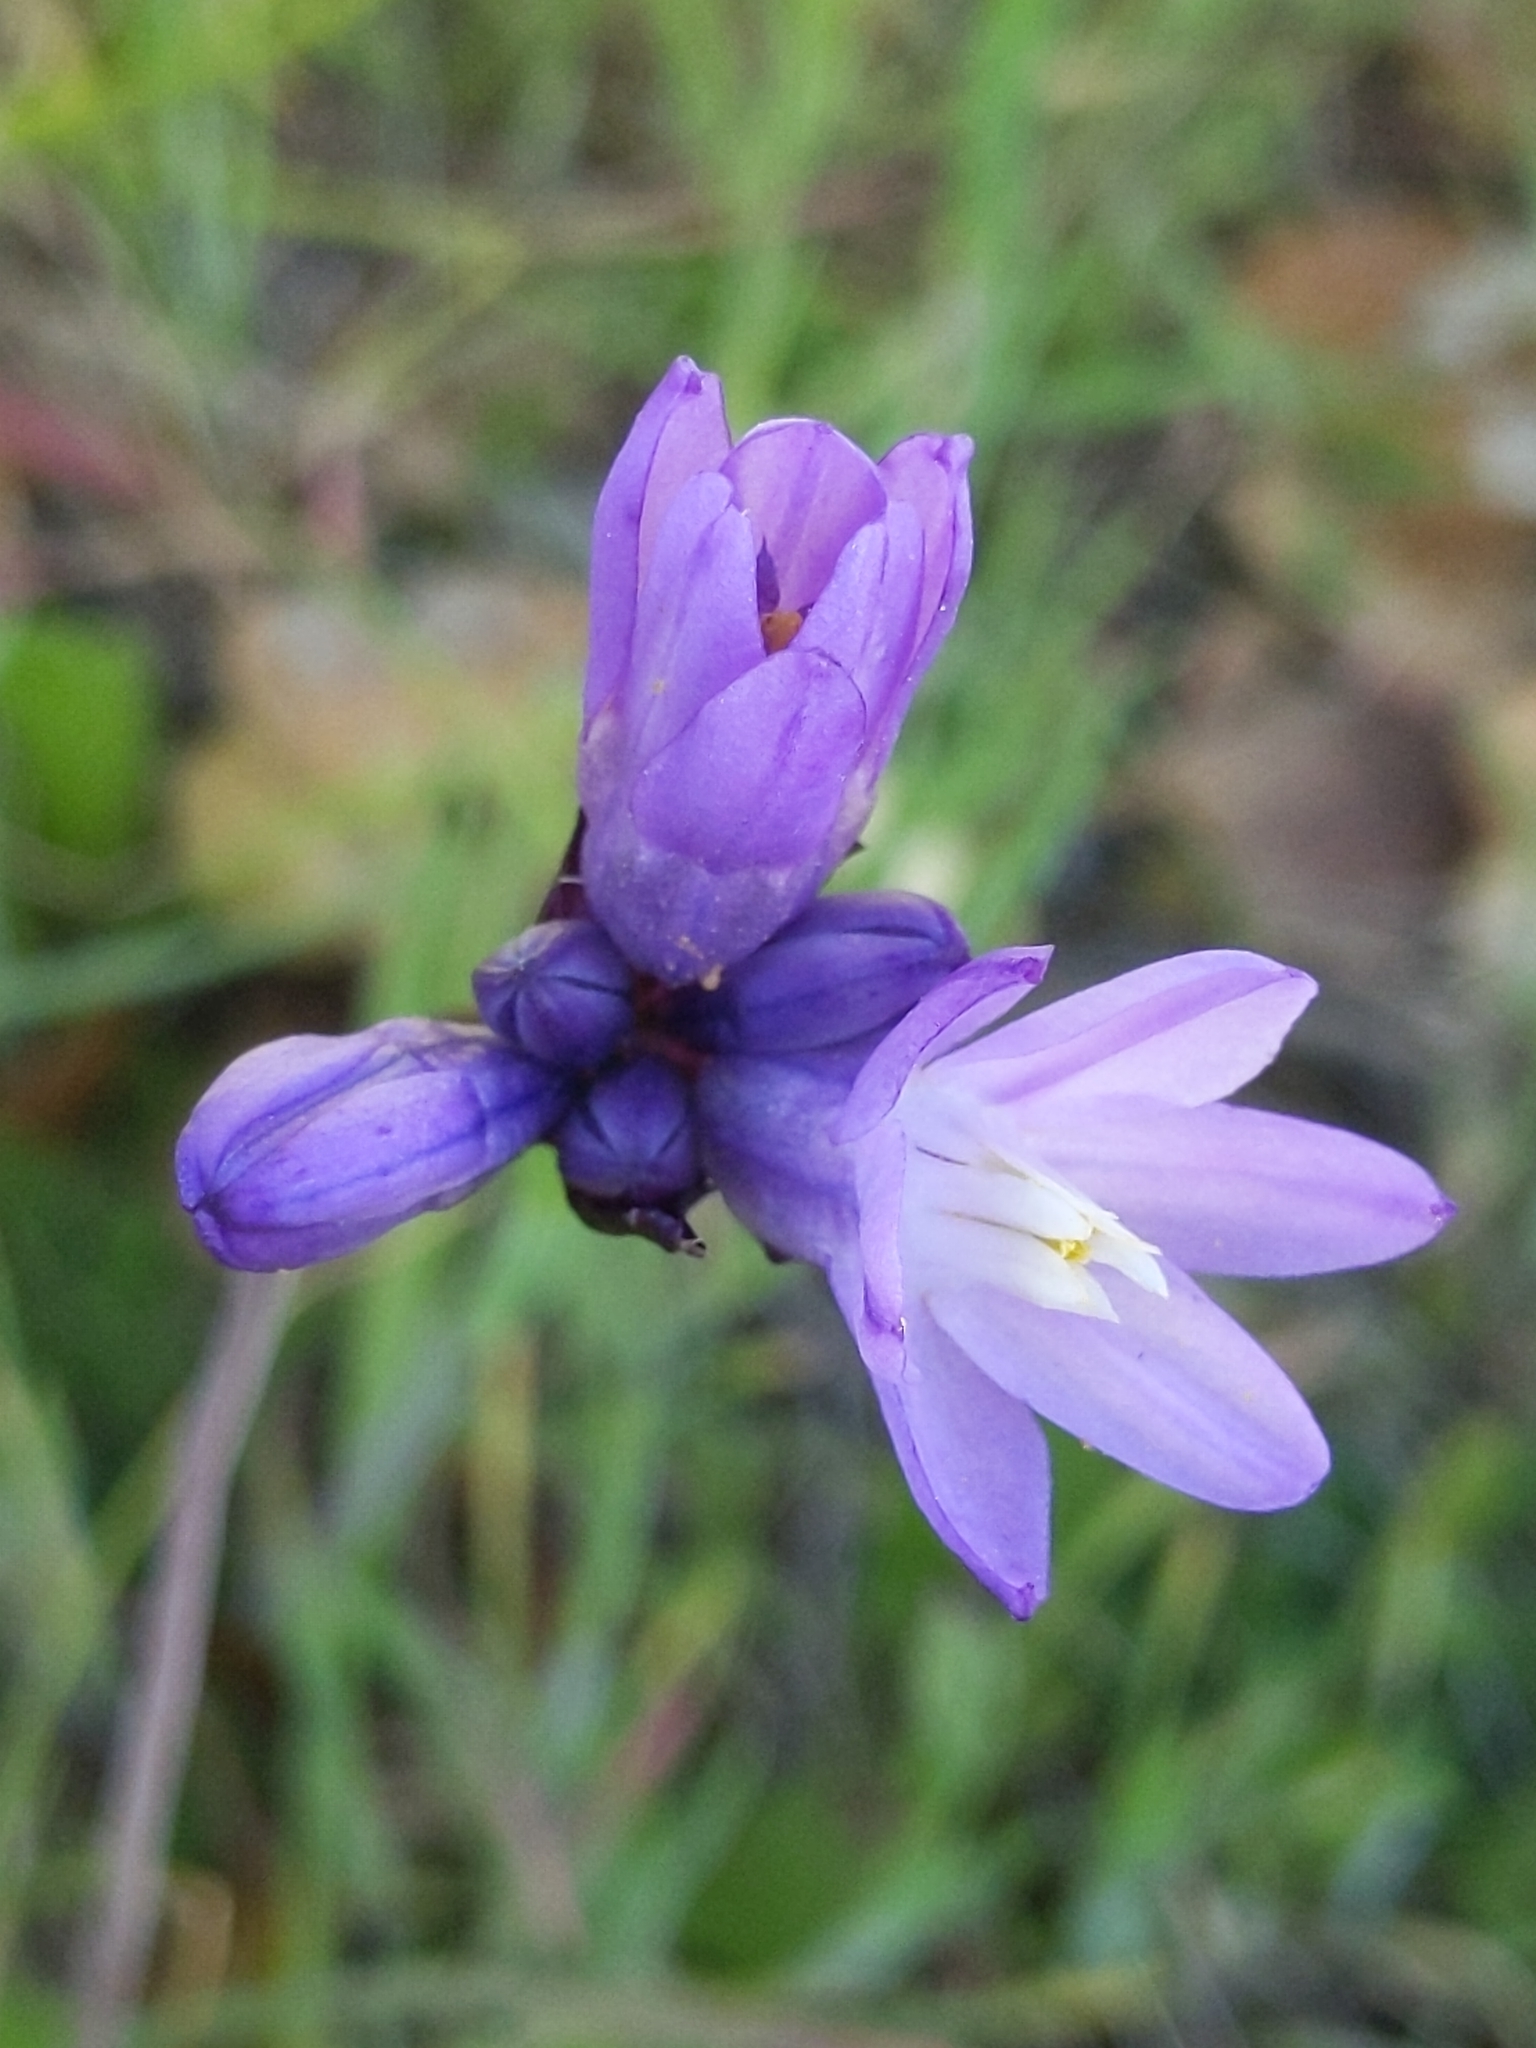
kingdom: Plantae
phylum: Tracheophyta
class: Liliopsida
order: Asparagales
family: Asparagaceae
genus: Dipterostemon
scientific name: Dipterostemon capitatus
